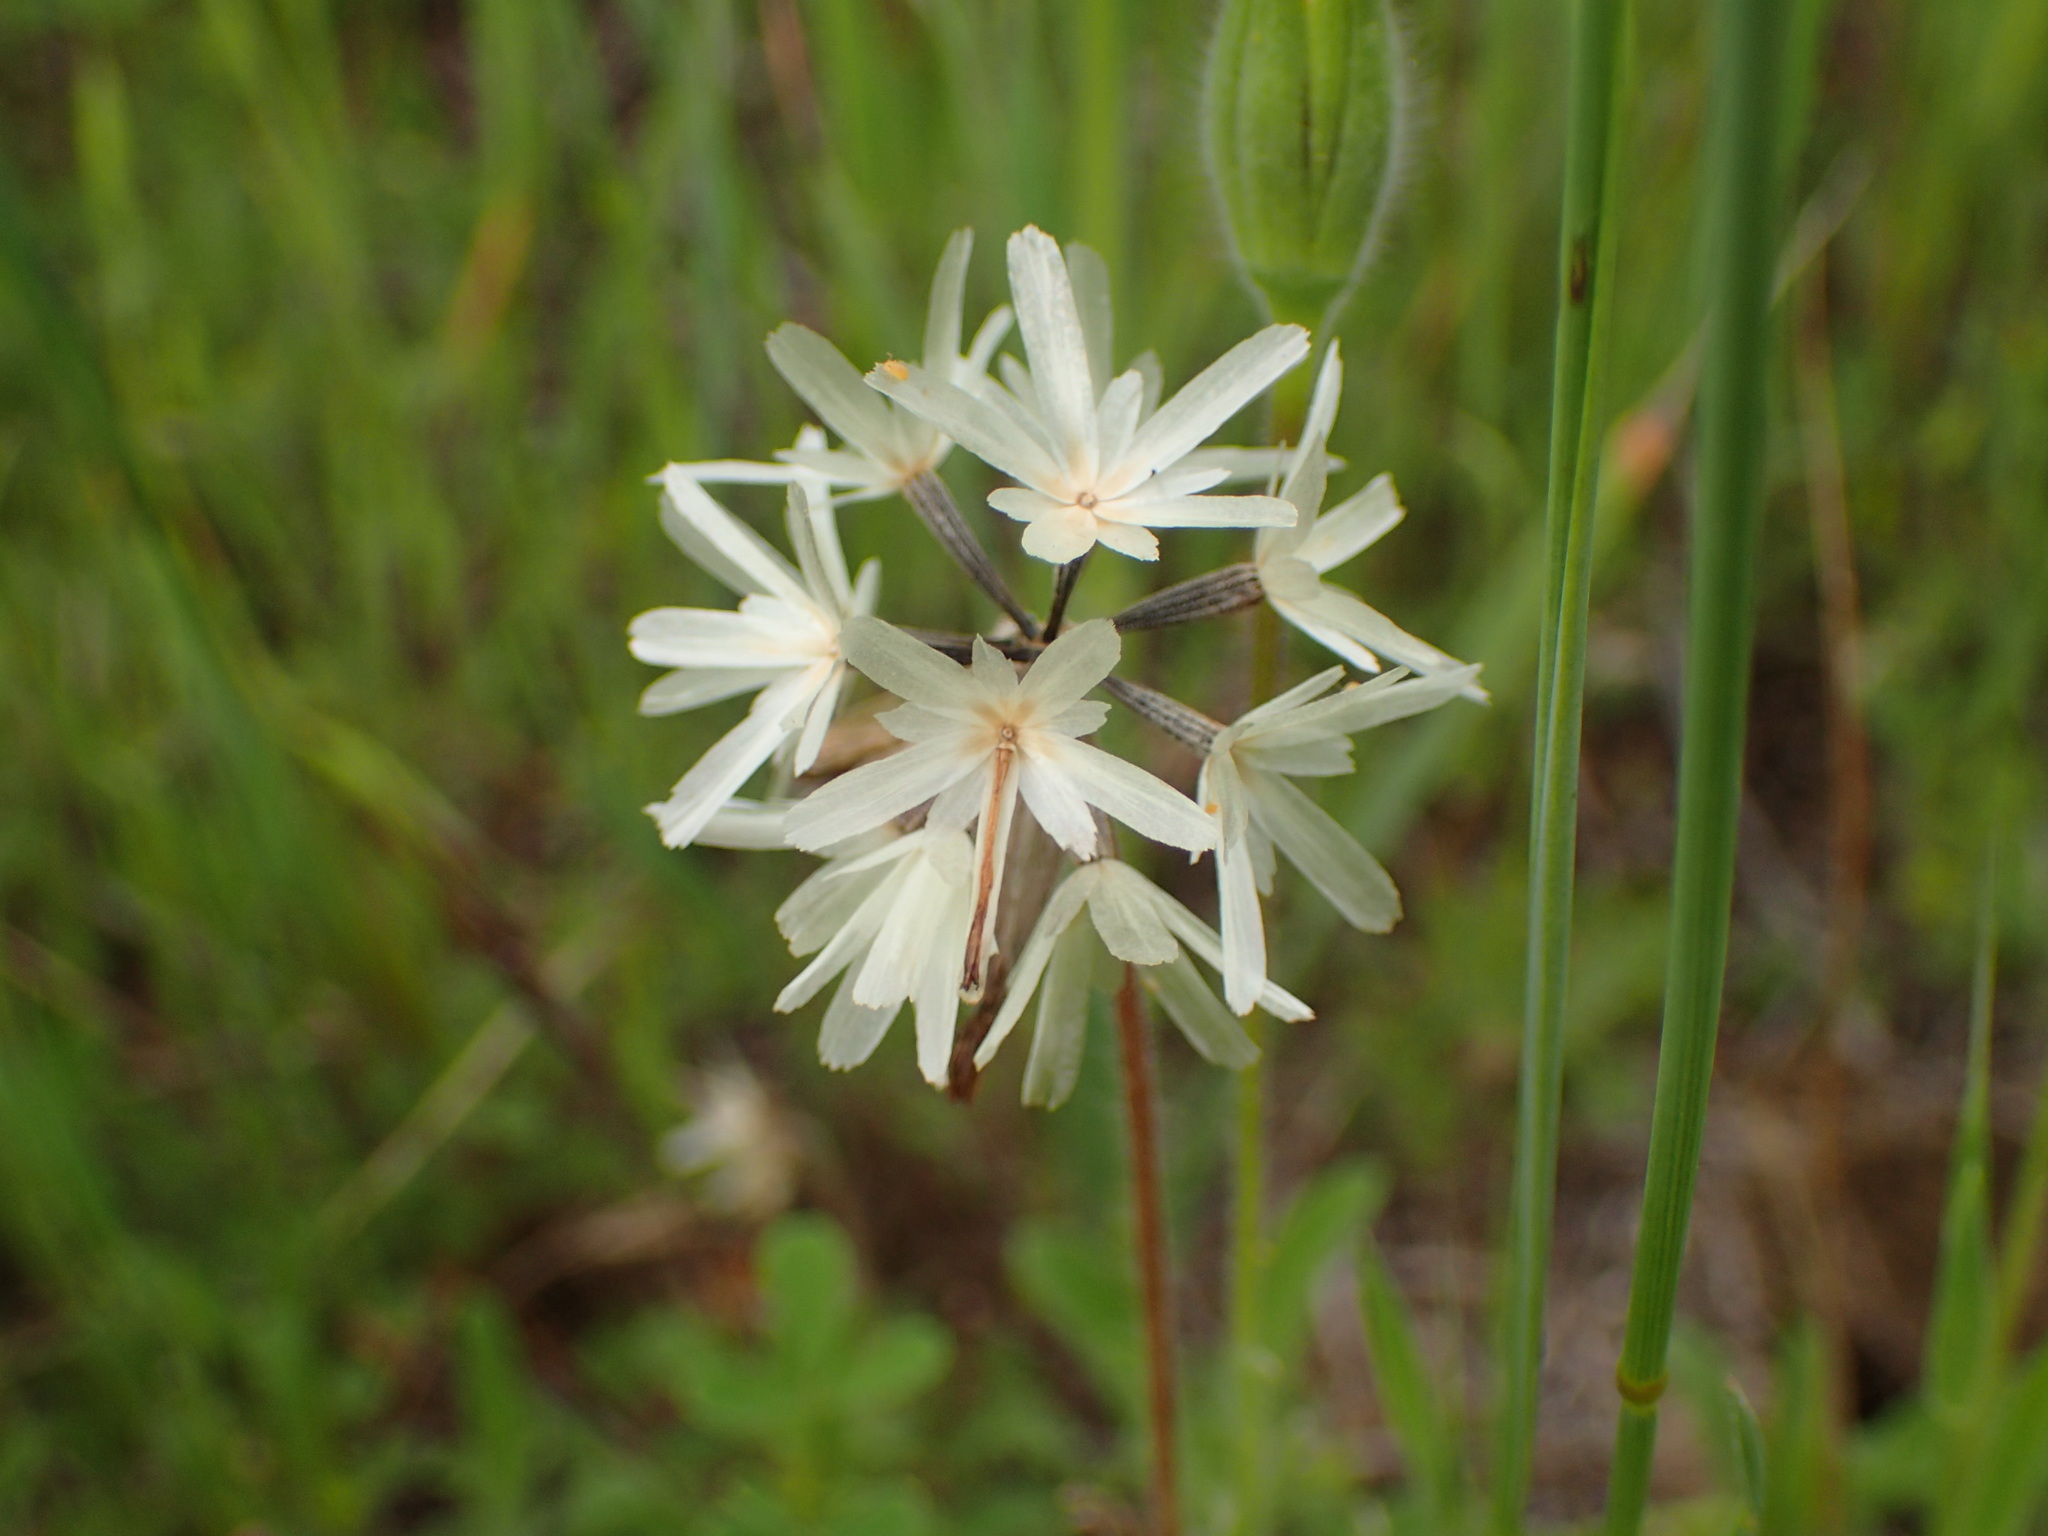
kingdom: Plantae
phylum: Tracheophyta
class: Magnoliopsida
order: Asterales
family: Asteraceae
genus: Achyrachaena
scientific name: Achyrachaena mollis
